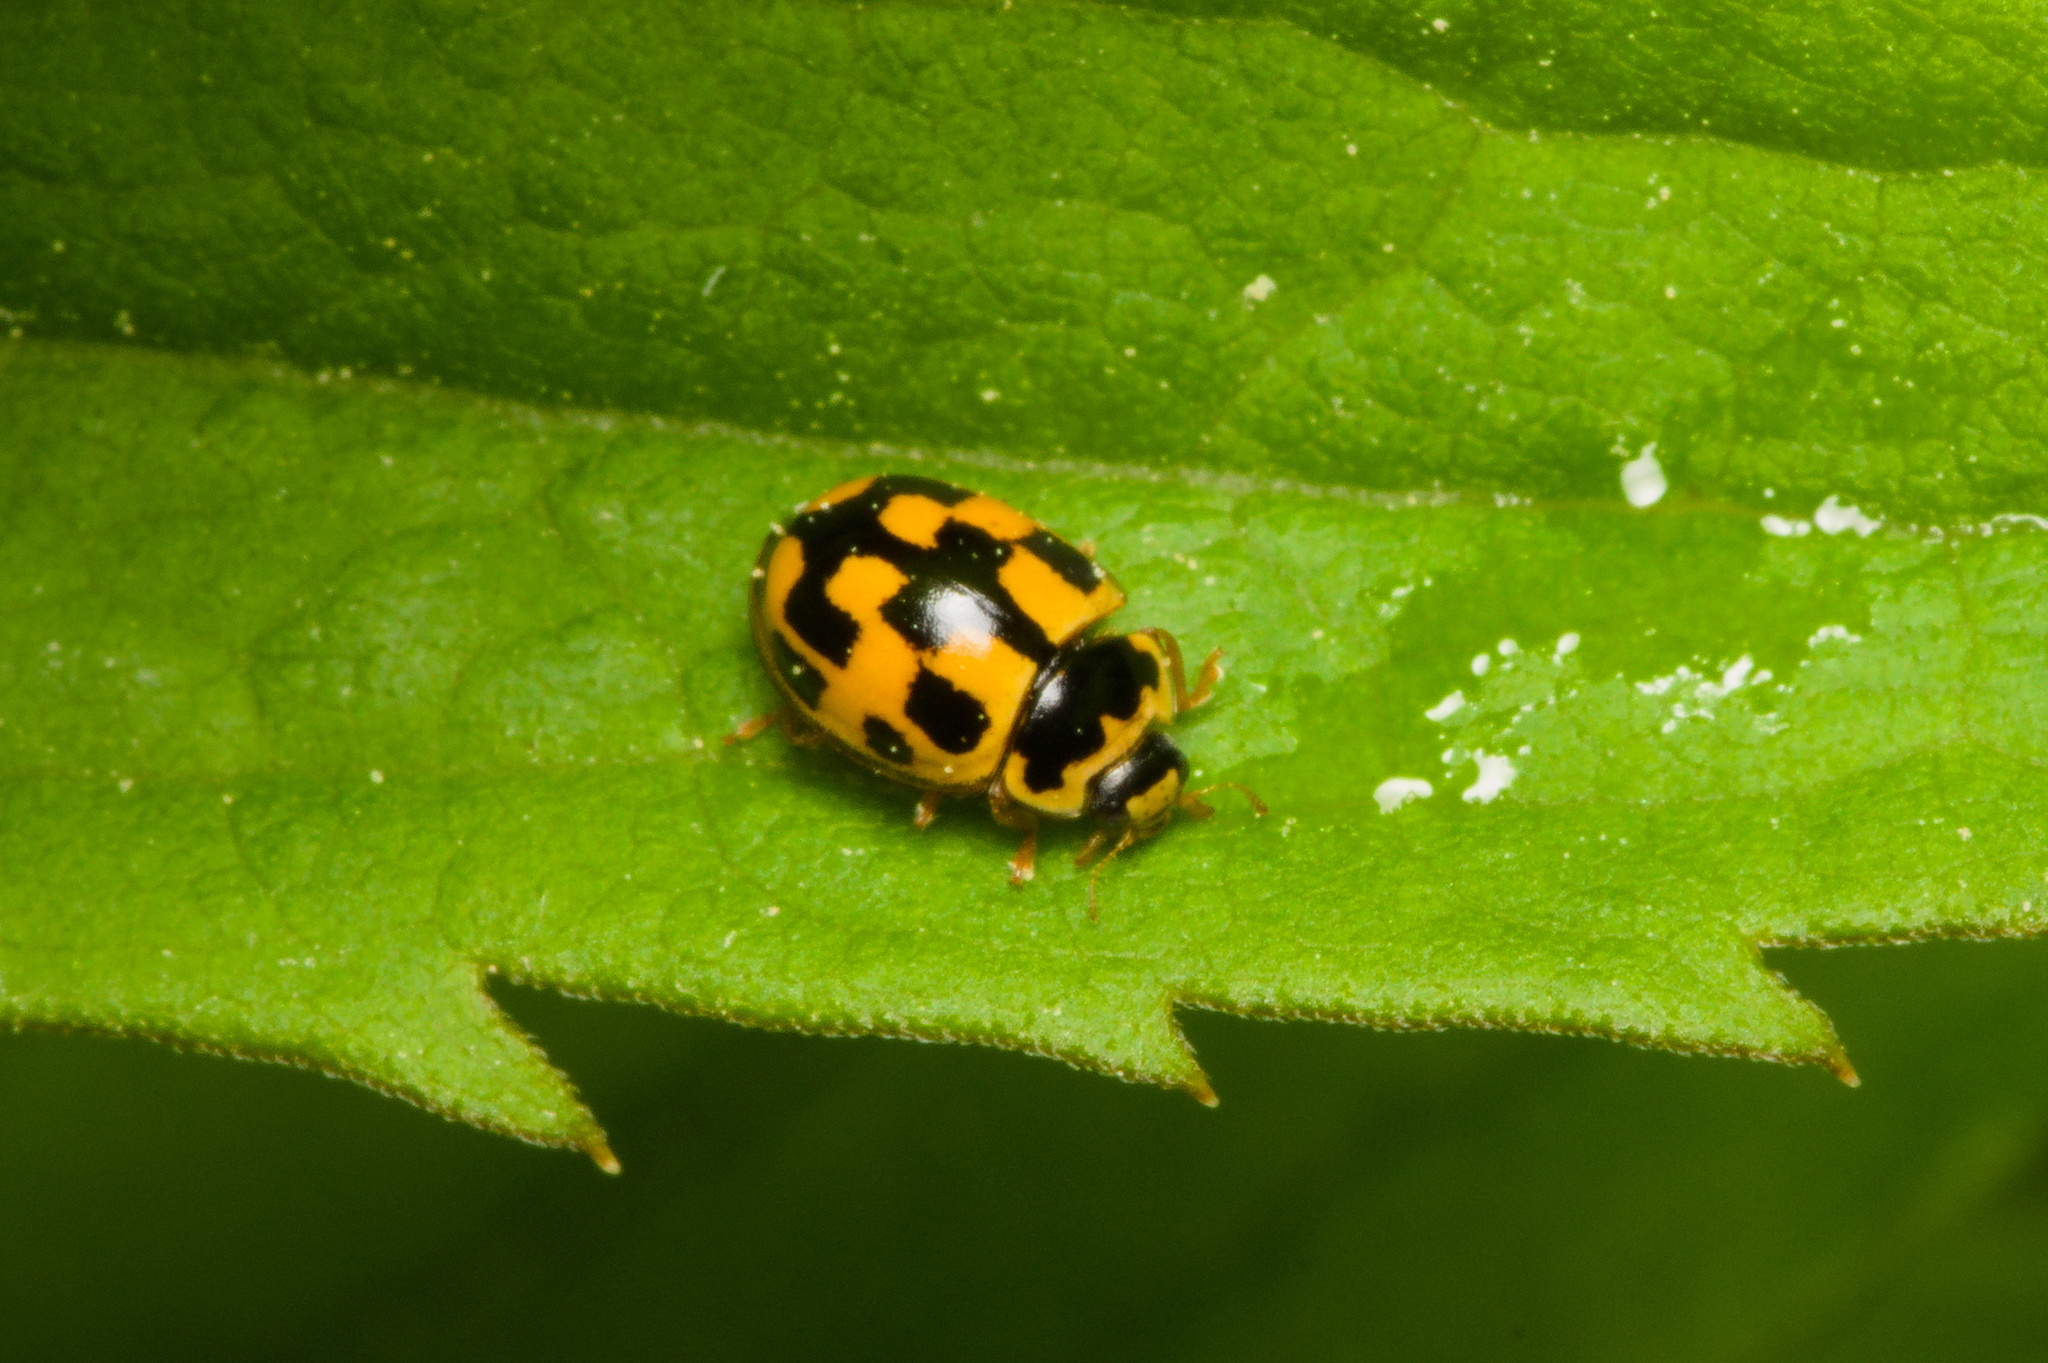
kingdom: Animalia
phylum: Arthropoda
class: Insecta
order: Coleoptera
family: Coccinellidae
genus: Propylaea
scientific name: Propylaea quatuordecimpunctata
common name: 14-spotted ladybird beetle
